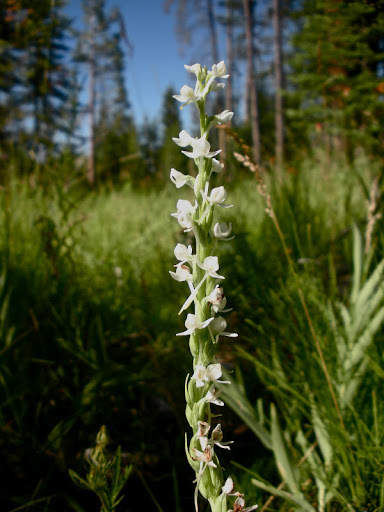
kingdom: Plantae
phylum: Tracheophyta
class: Liliopsida
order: Asparagales
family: Orchidaceae
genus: Platanthera
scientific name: Platanthera dilatata
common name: Bog candles
